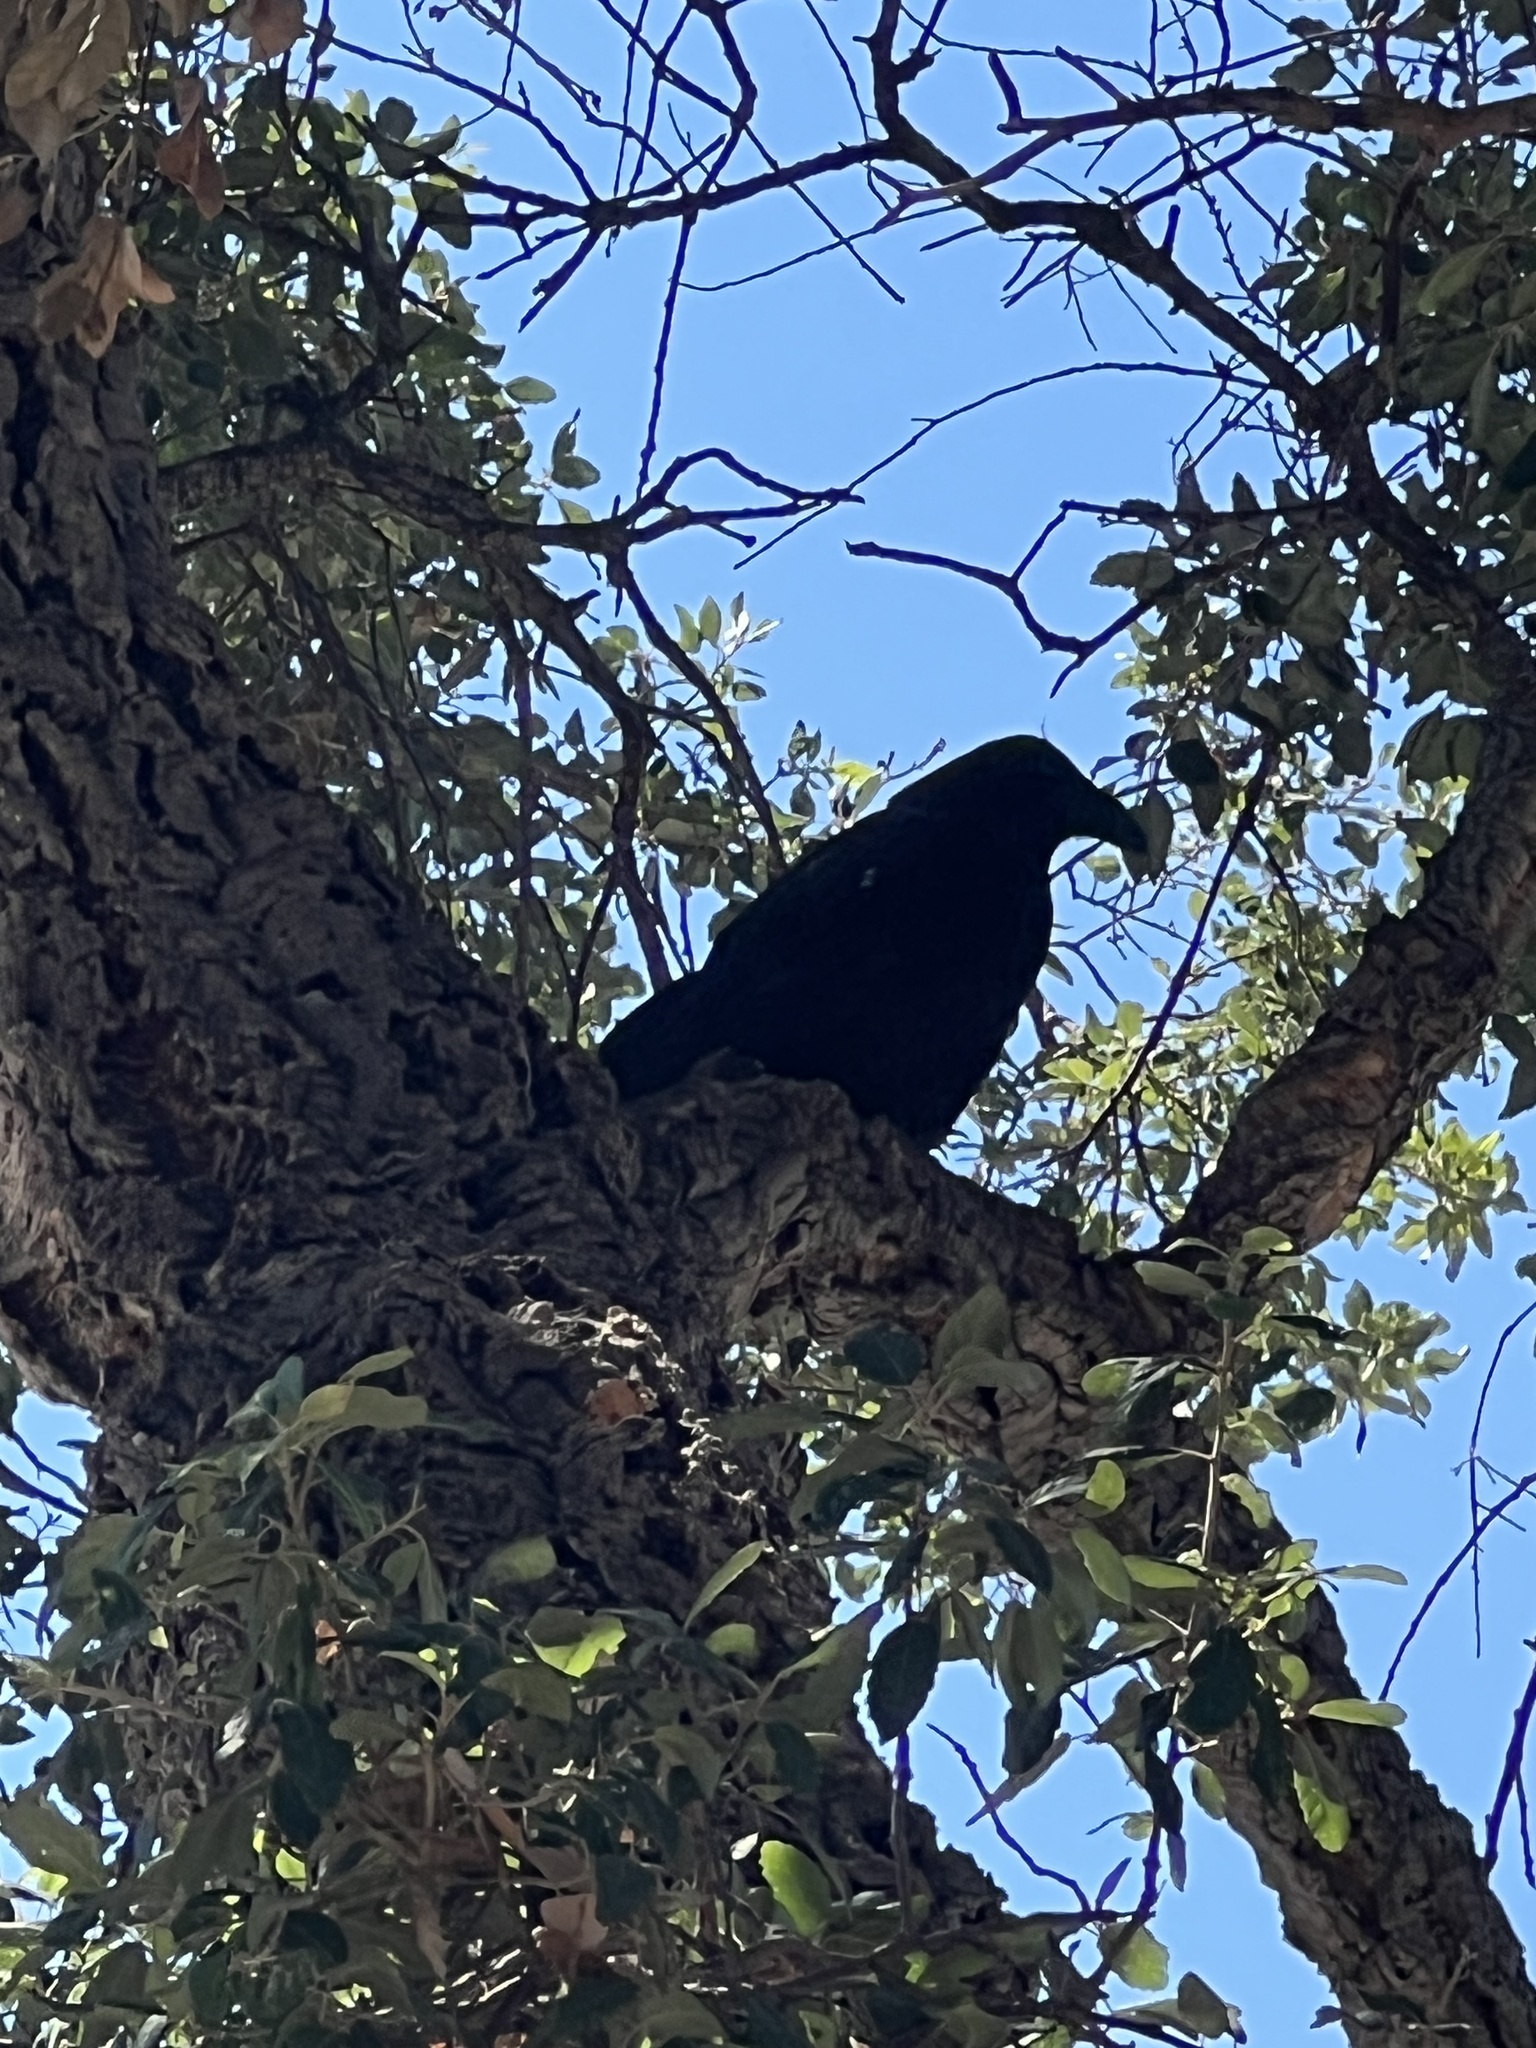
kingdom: Animalia
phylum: Chordata
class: Aves
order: Passeriformes
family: Corvidae
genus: Corvus
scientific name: Corvus corax
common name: Common raven
